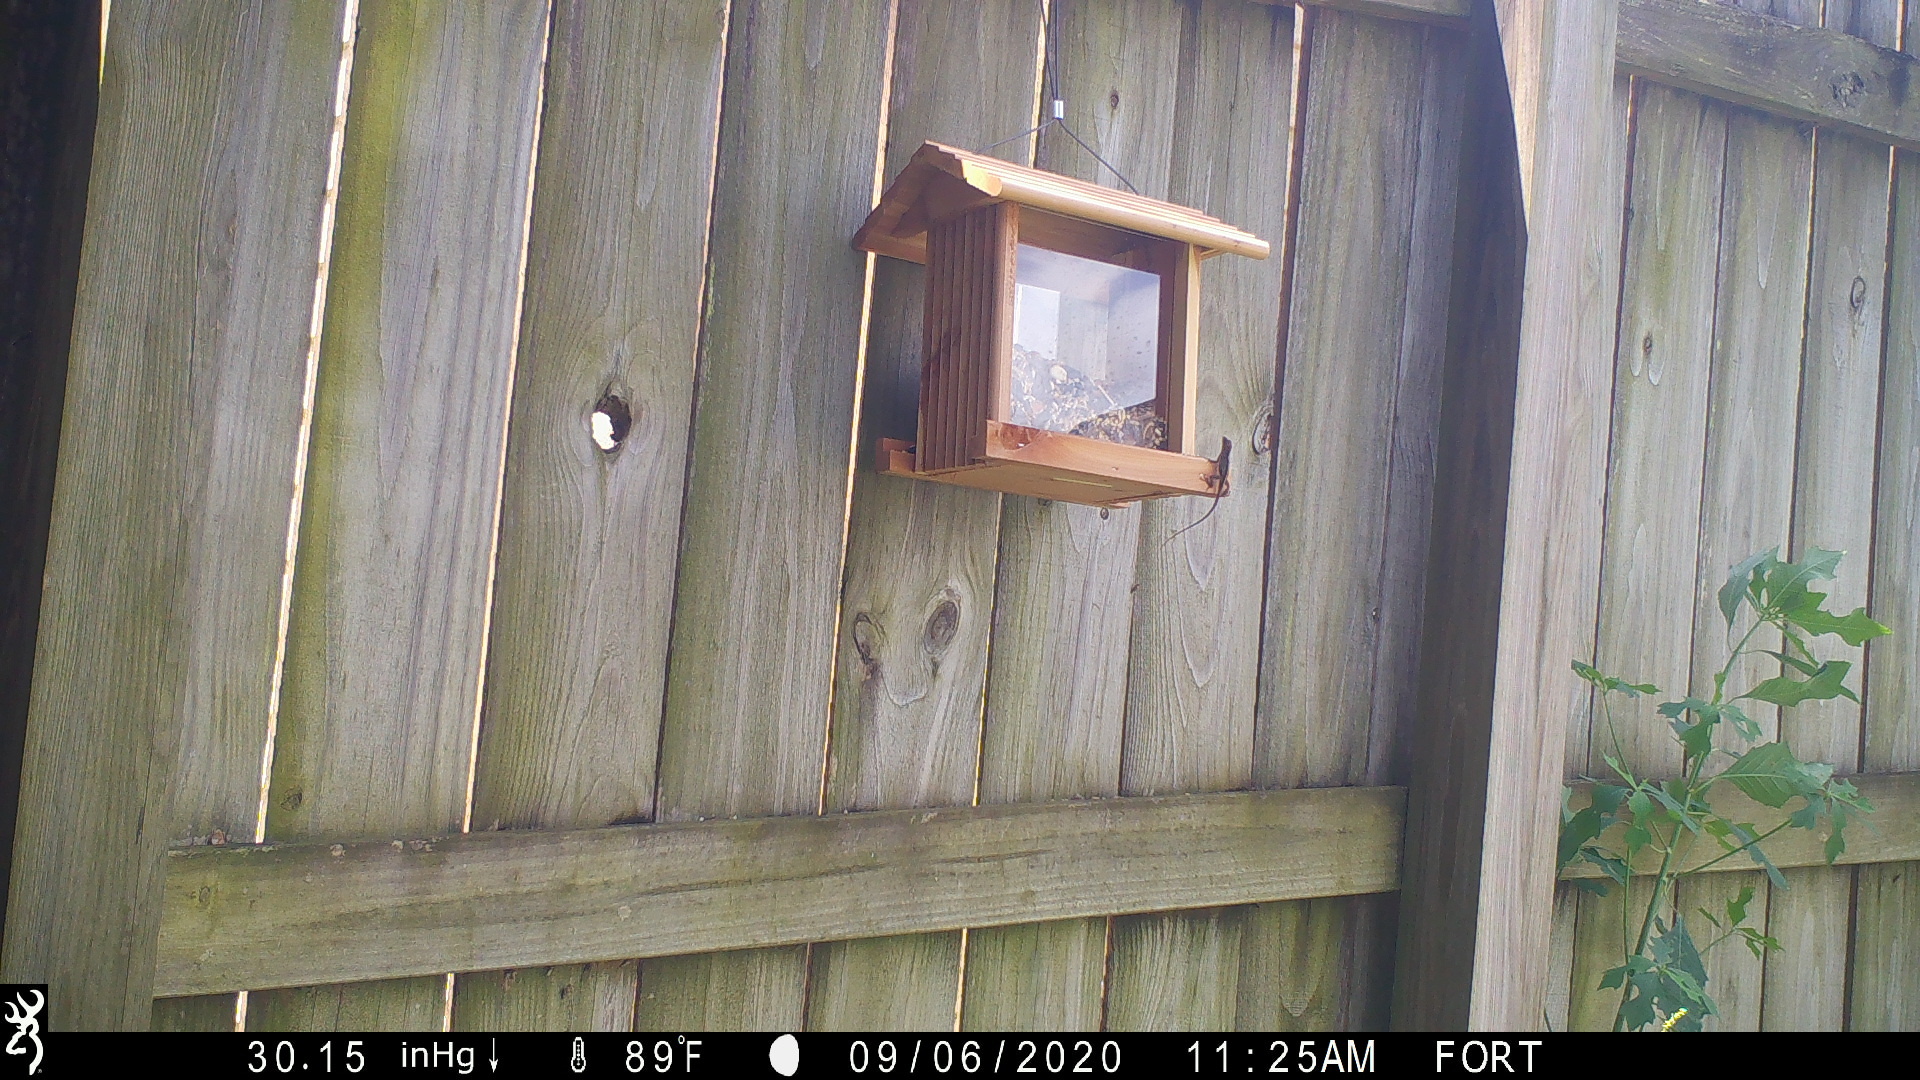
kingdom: Animalia
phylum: Chordata
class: Squamata
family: Dactyloidae
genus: Anolis
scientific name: Anolis sagrei
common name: Brown anole
